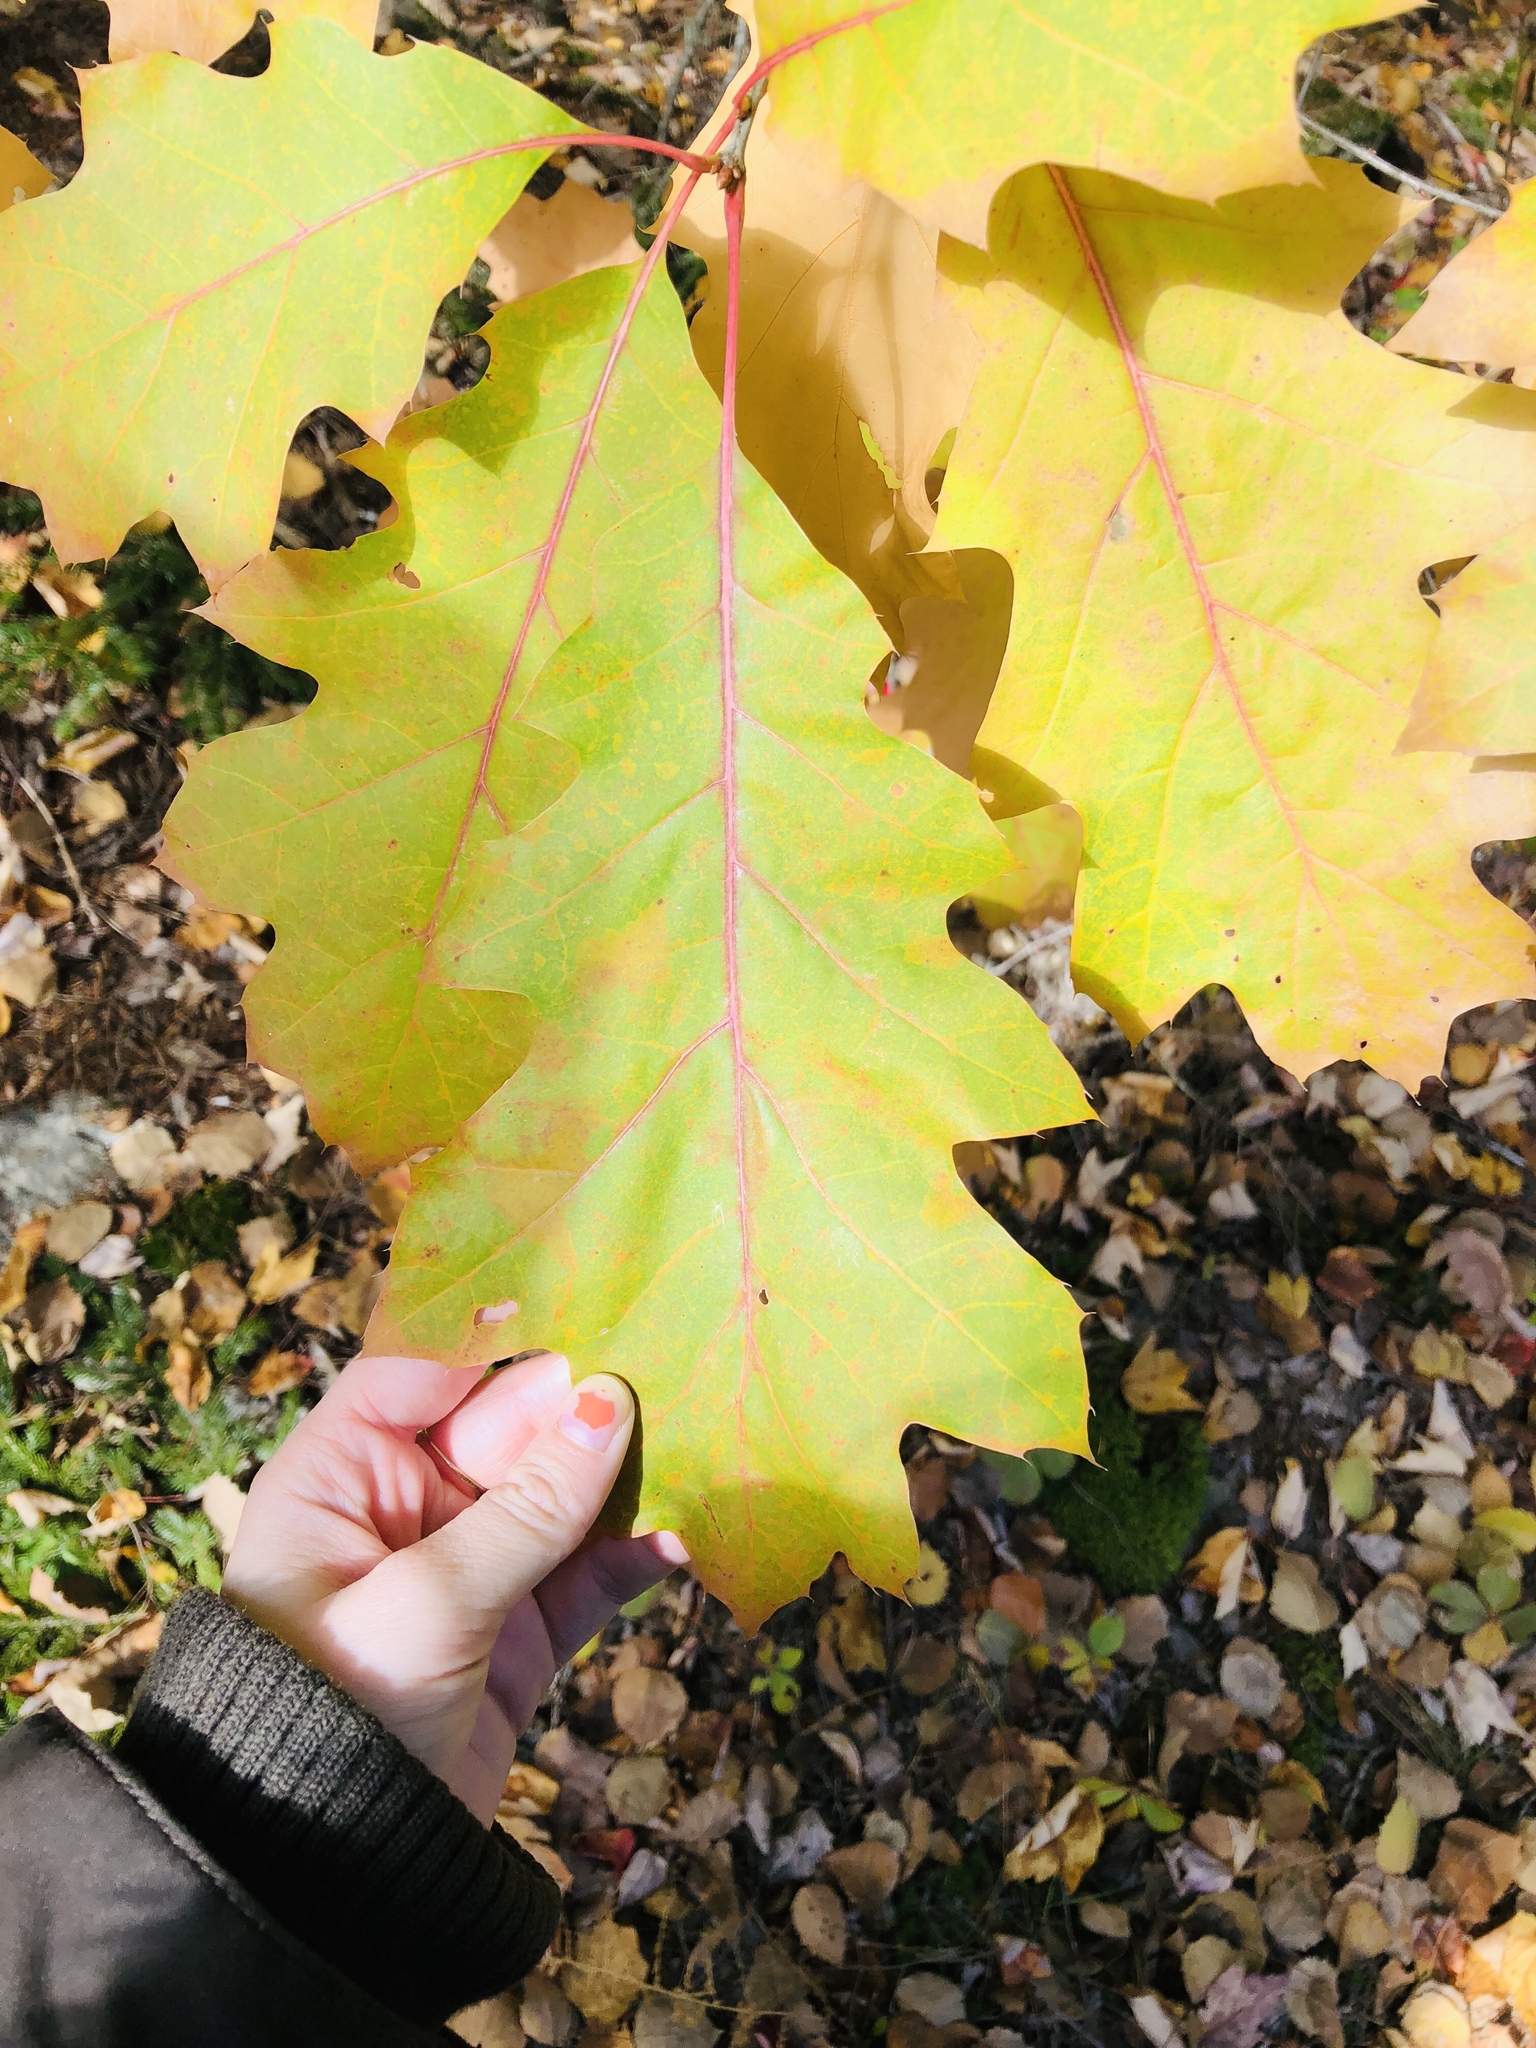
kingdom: Plantae
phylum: Tracheophyta
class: Magnoliopsida
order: Fagales
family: Fagaceae
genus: Quercus
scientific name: Quercus rubra
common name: Red oak
